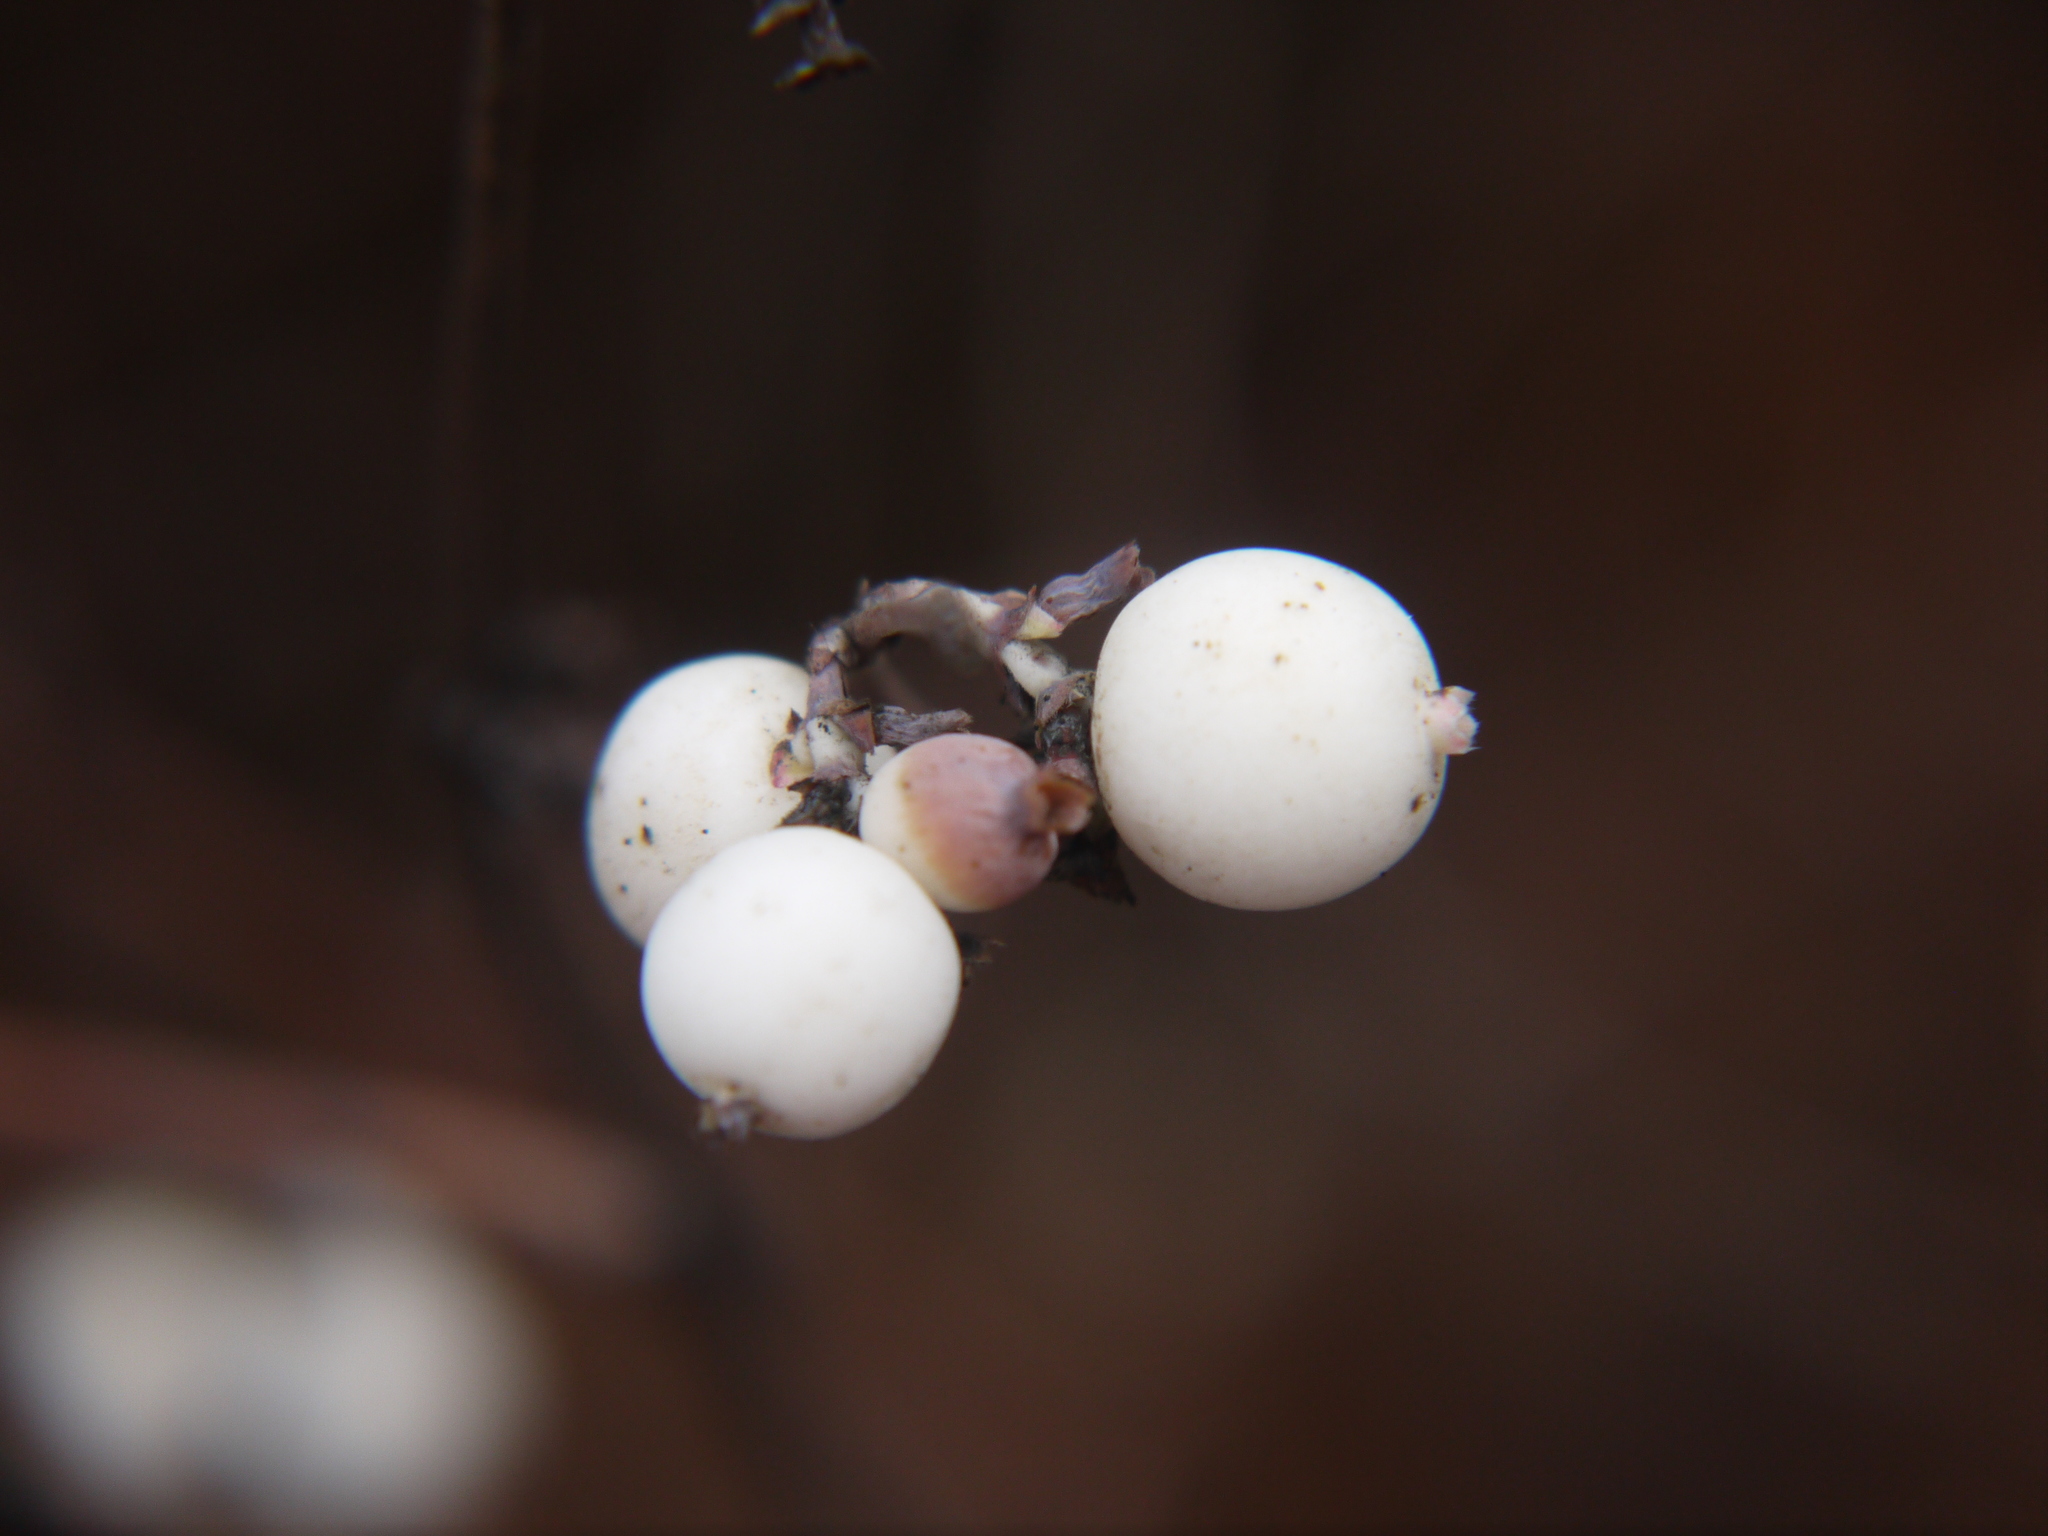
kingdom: Plantae
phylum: Tracheophyta
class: Magnoliopsida
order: Dipsacales
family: Caprifoliaceae
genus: Symphoricarpos
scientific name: Symphoricarpos albus
